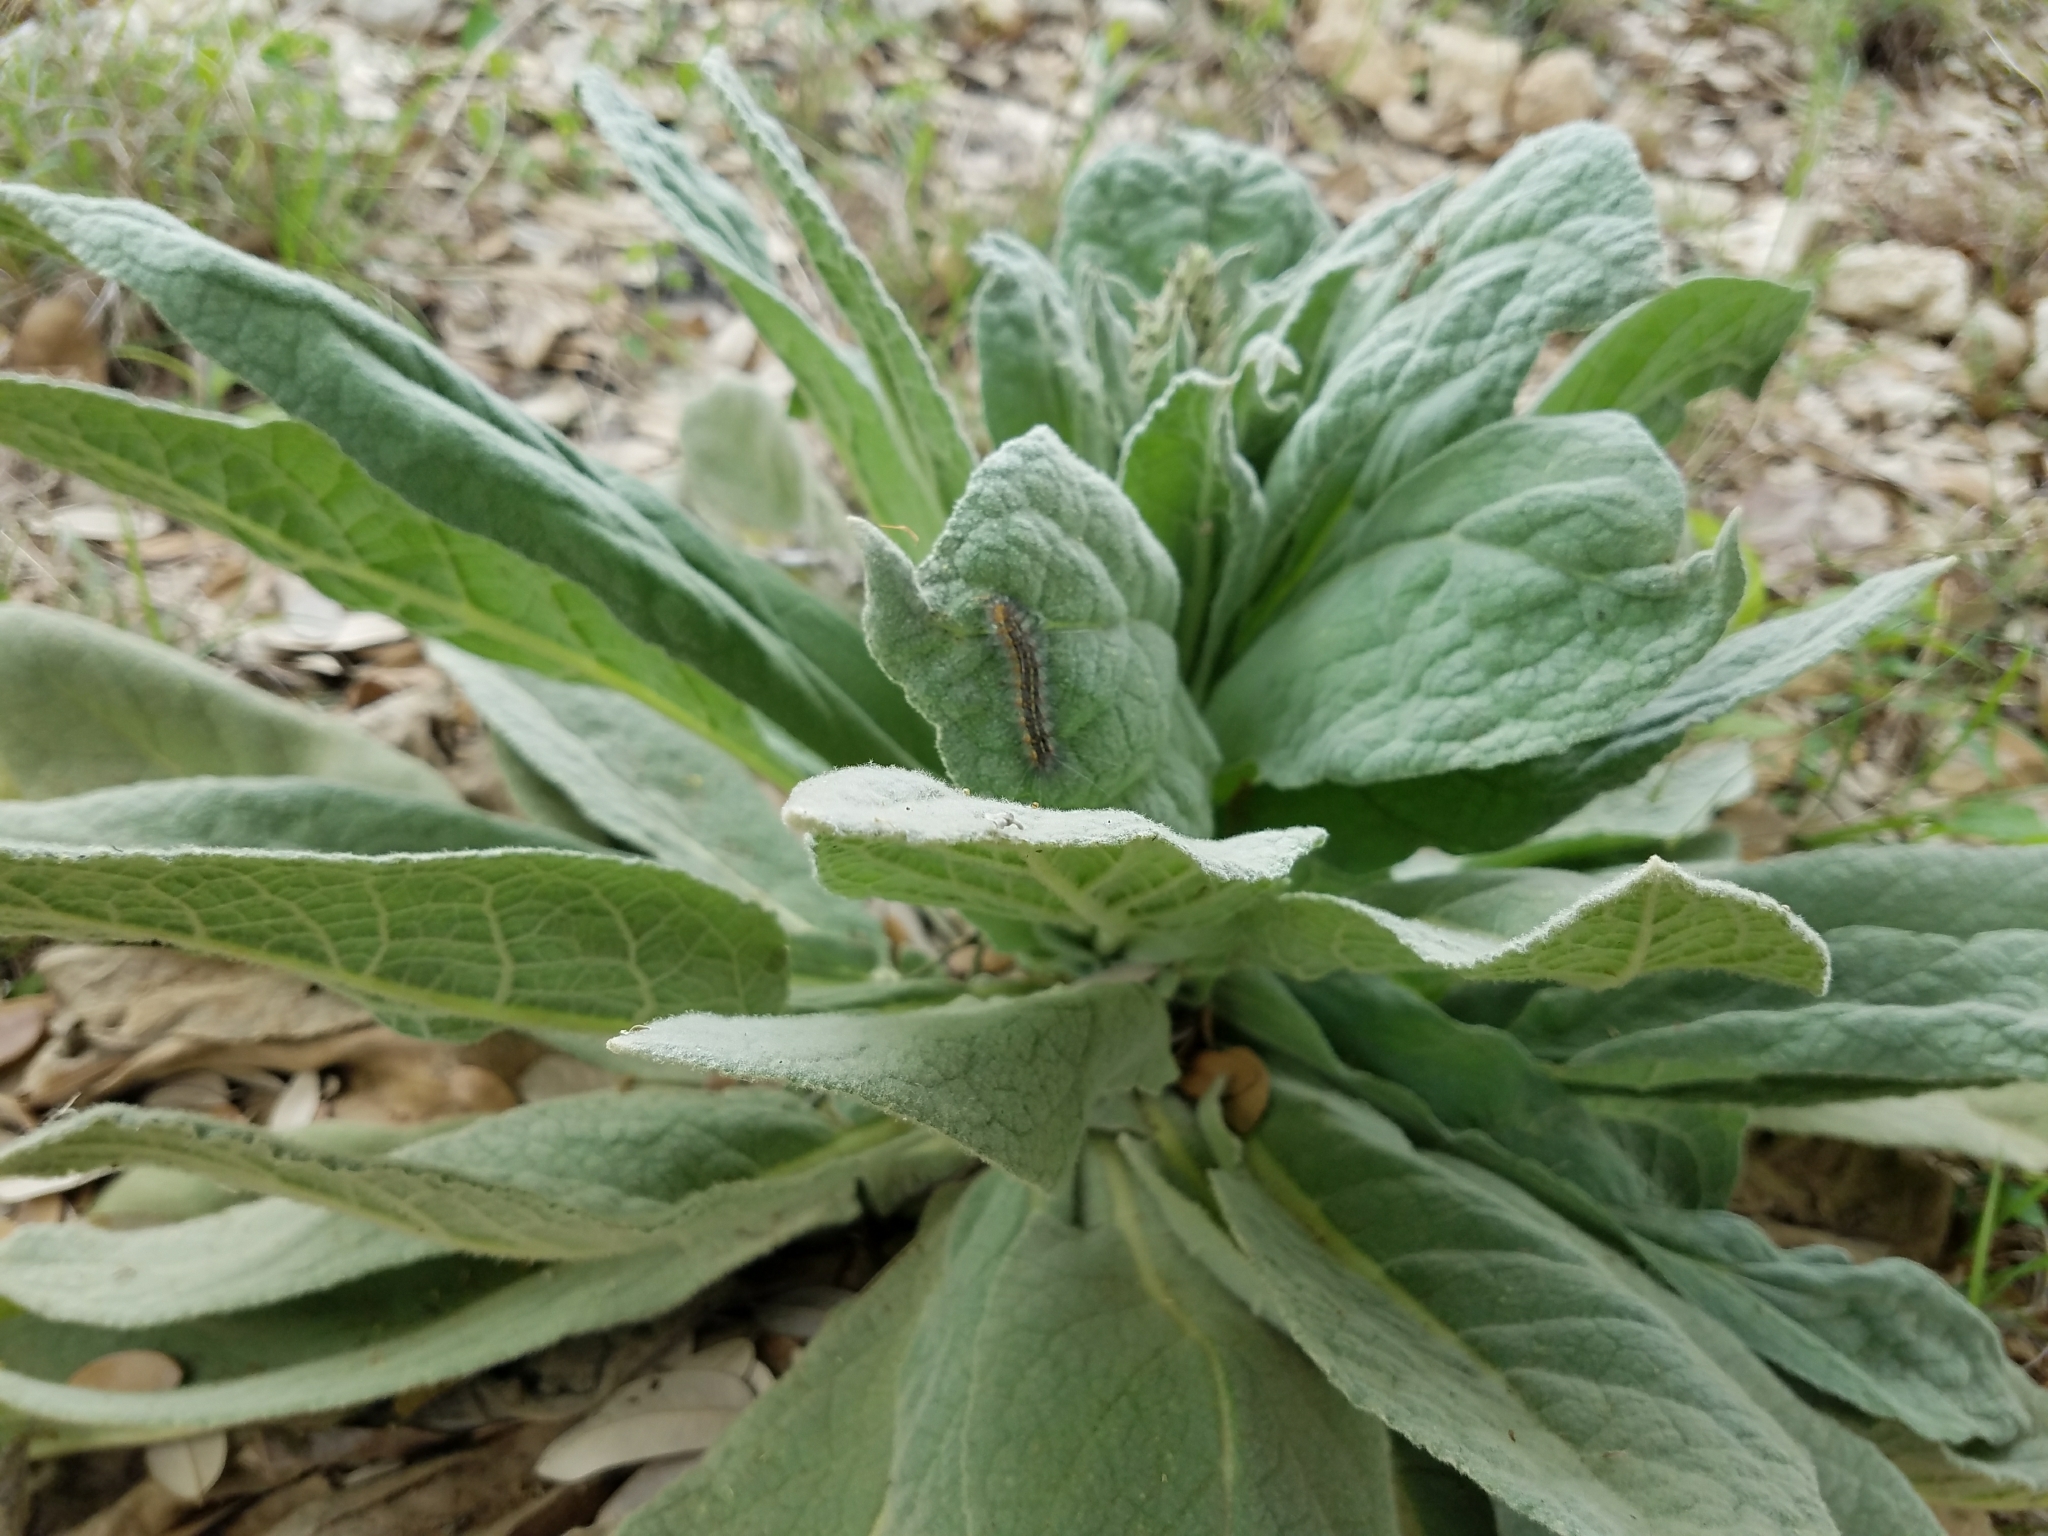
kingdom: Plantae
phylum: Tracheophyta
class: Magnoliopsida
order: Lamiales
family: Scrophulariaceae
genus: Verbascum
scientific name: Verbascum thapsus
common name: Common mullein
